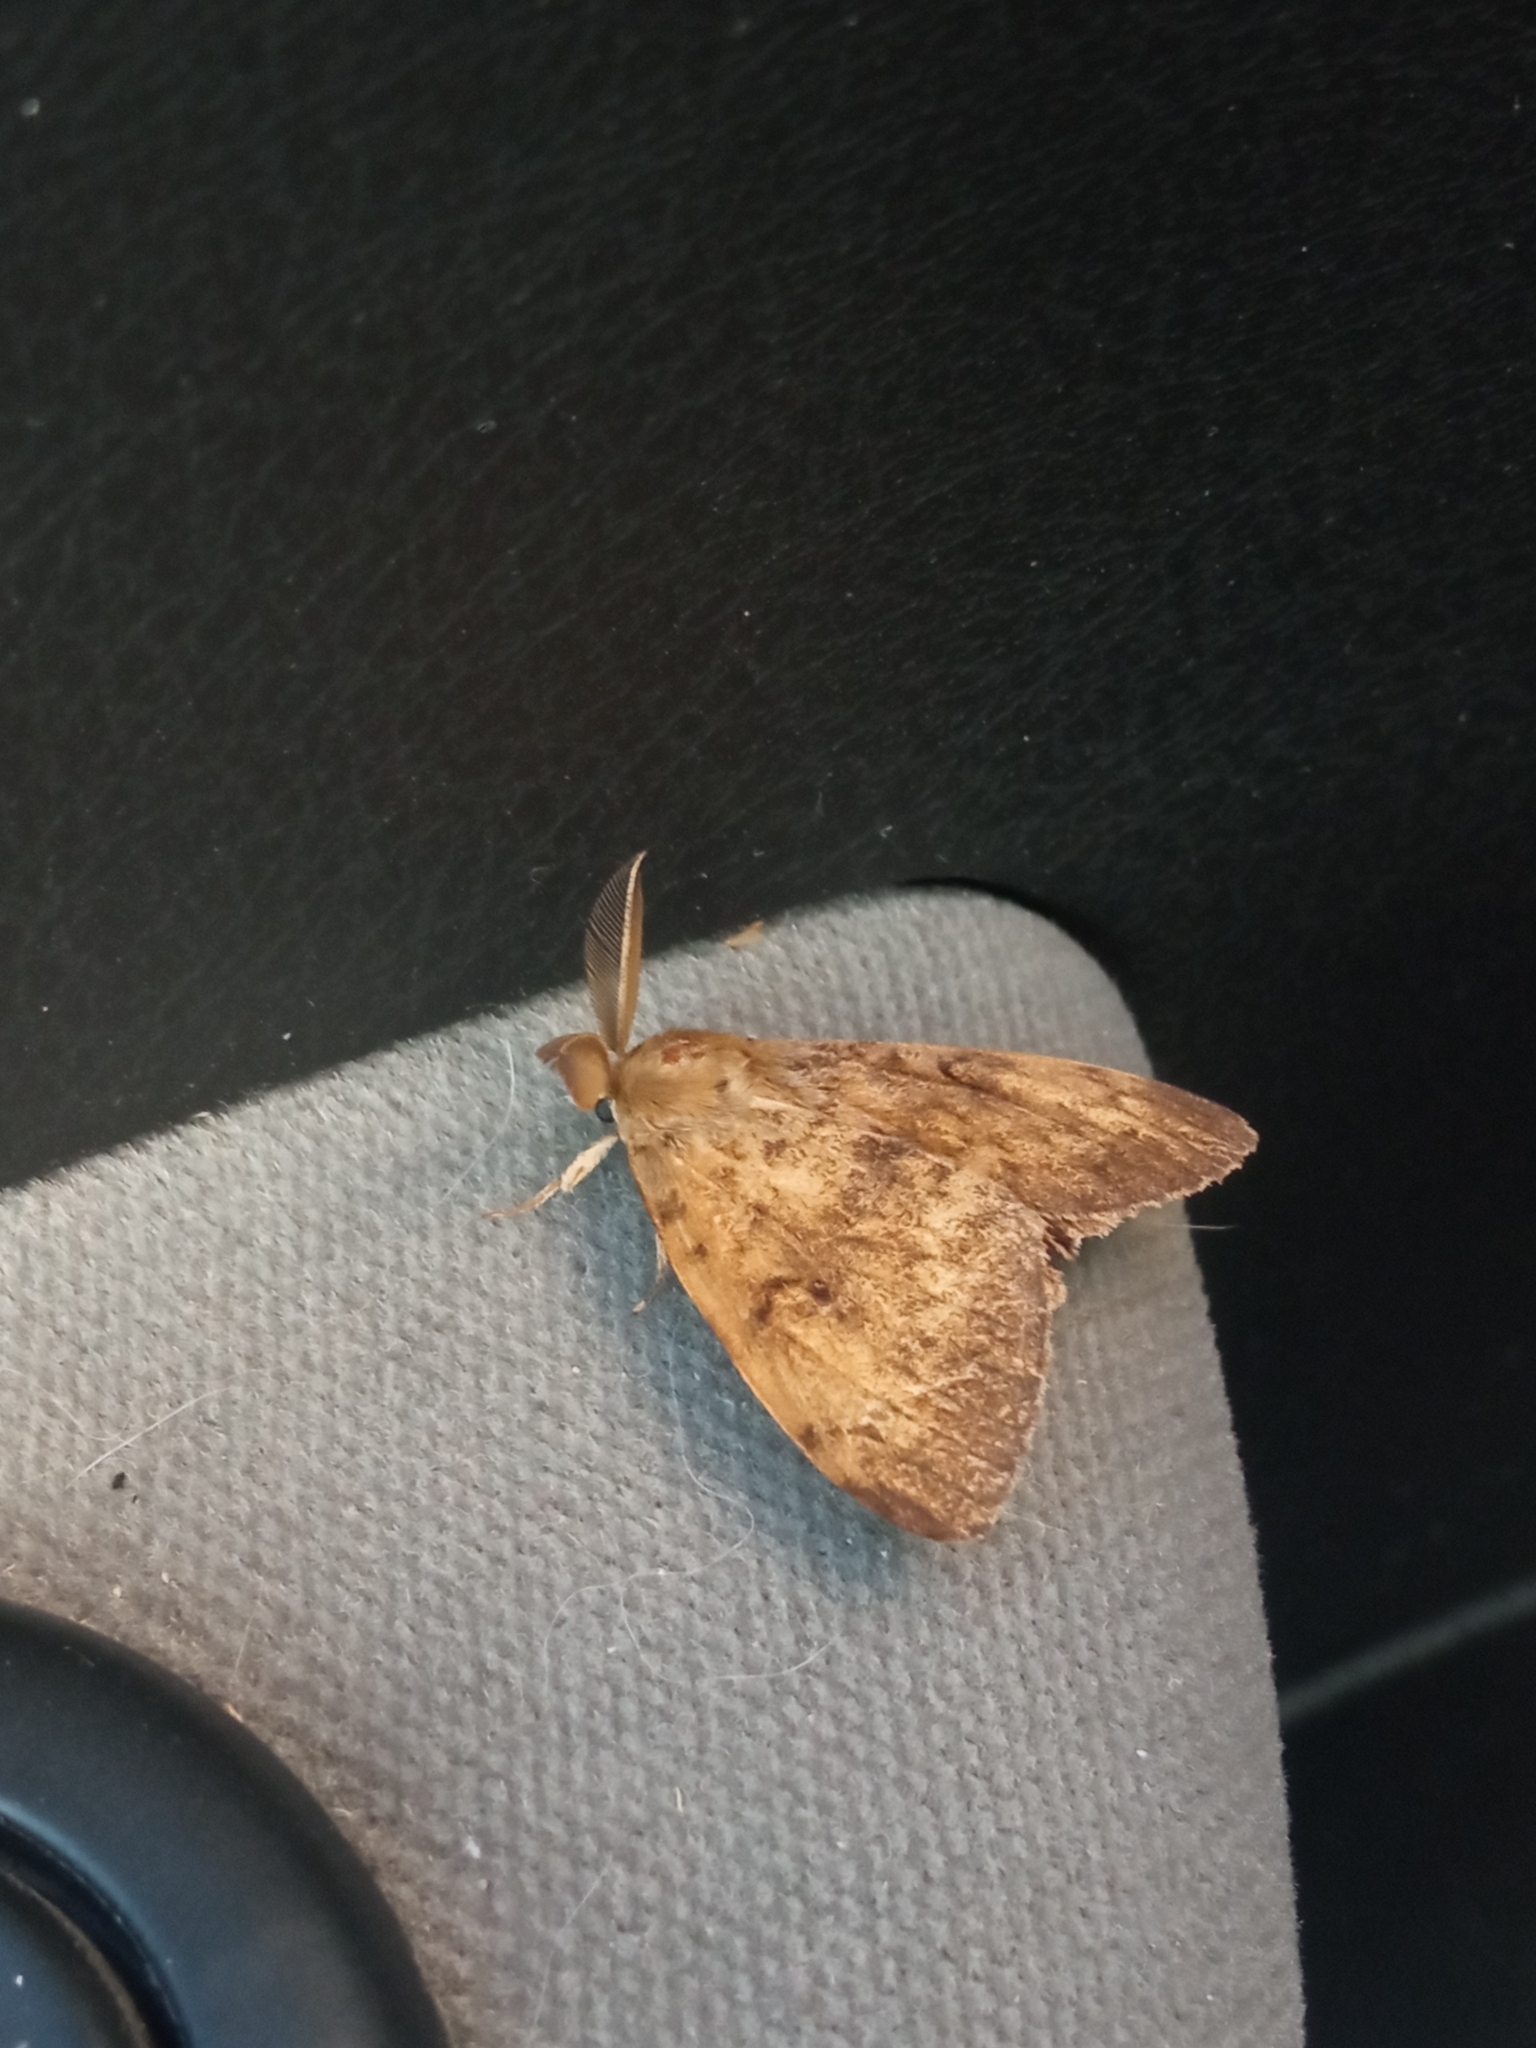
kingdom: Animalia
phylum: Arthropoda
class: Insecta
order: Lepidoptera
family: Erebidae
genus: Lymantria
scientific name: Lymantria dispar
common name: Gypsy moth
